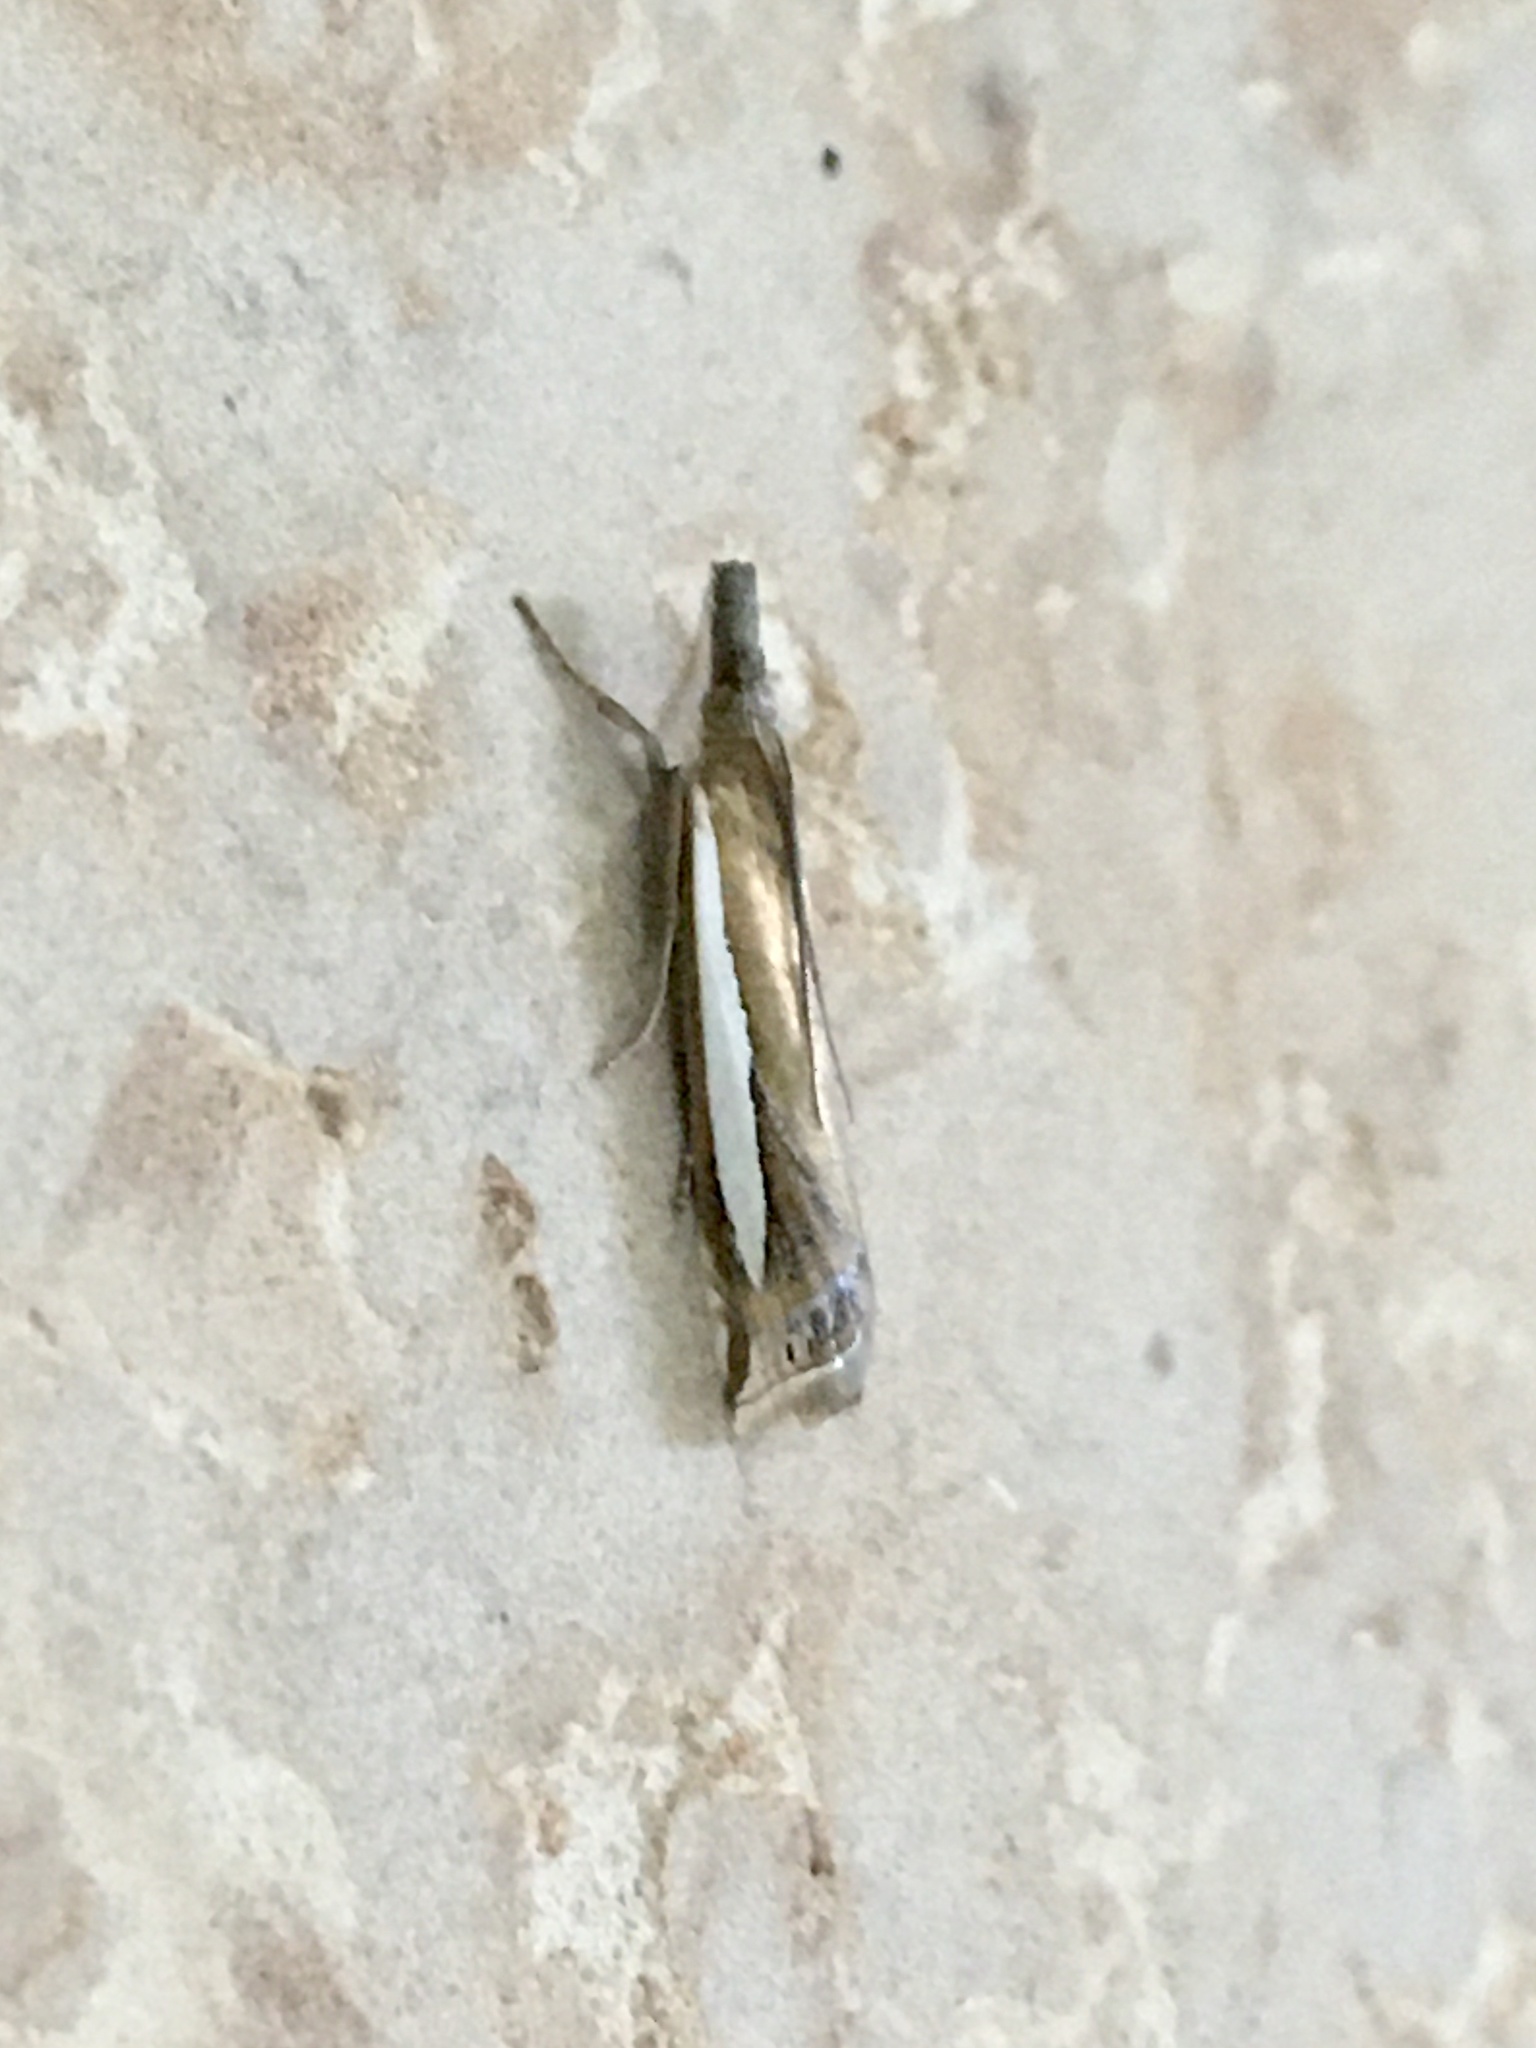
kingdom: Animalia
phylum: Arthropoda
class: Insecta
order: Lepidoptera
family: Crambidae
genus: Crambus
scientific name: Crambus praefectellus
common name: Common grass-veneer
